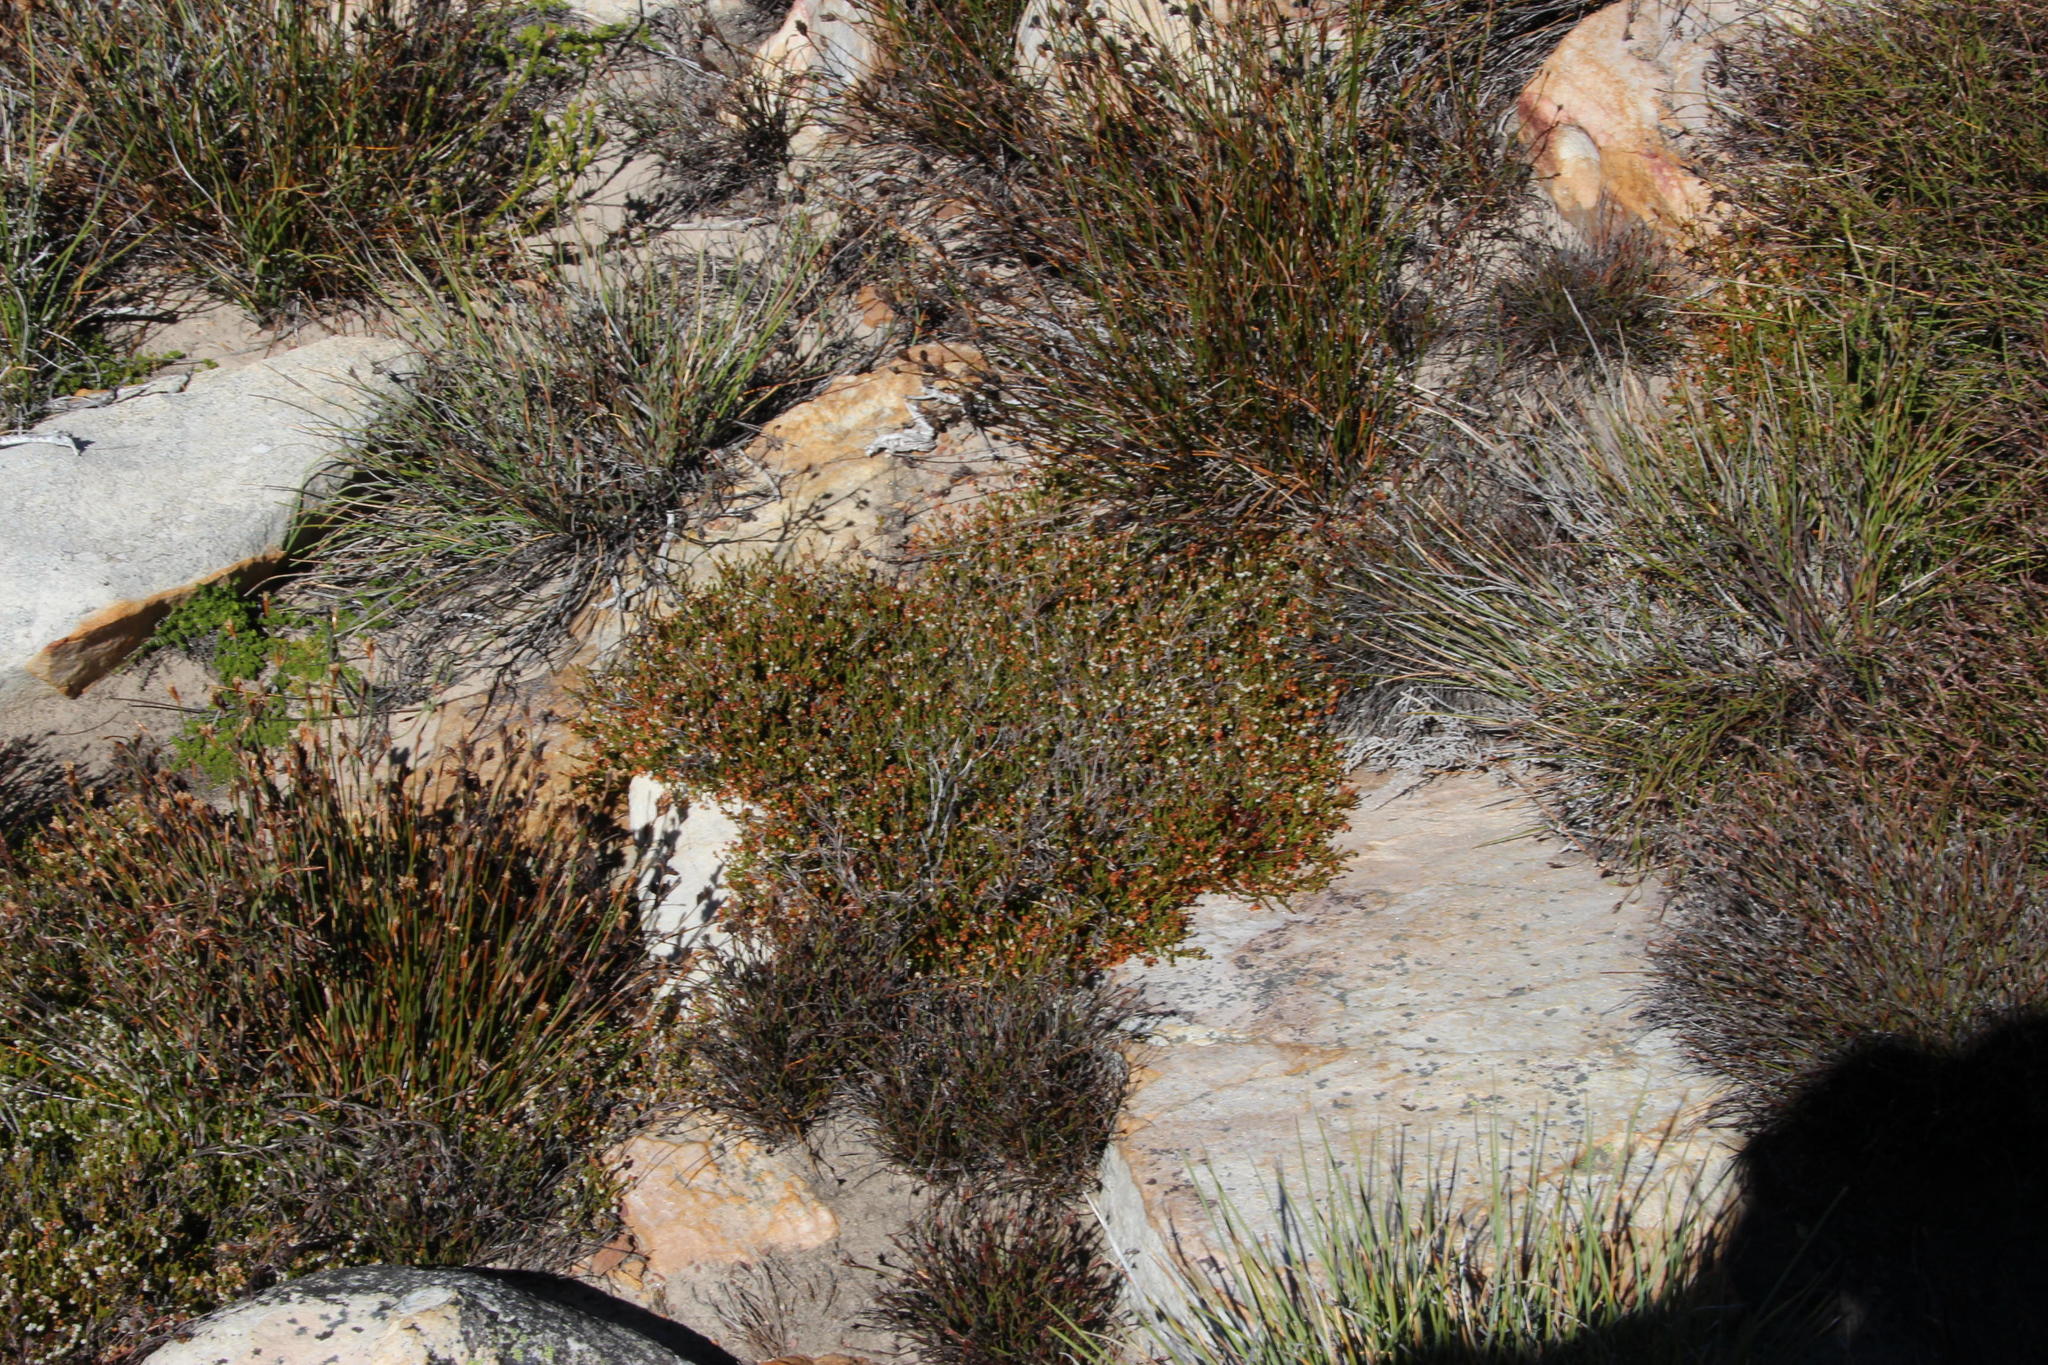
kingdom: Plantae
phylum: Tracheophyta
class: Magnoliopsida
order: Ericales
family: Ericaceae
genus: Erica
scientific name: Erica leptopus
